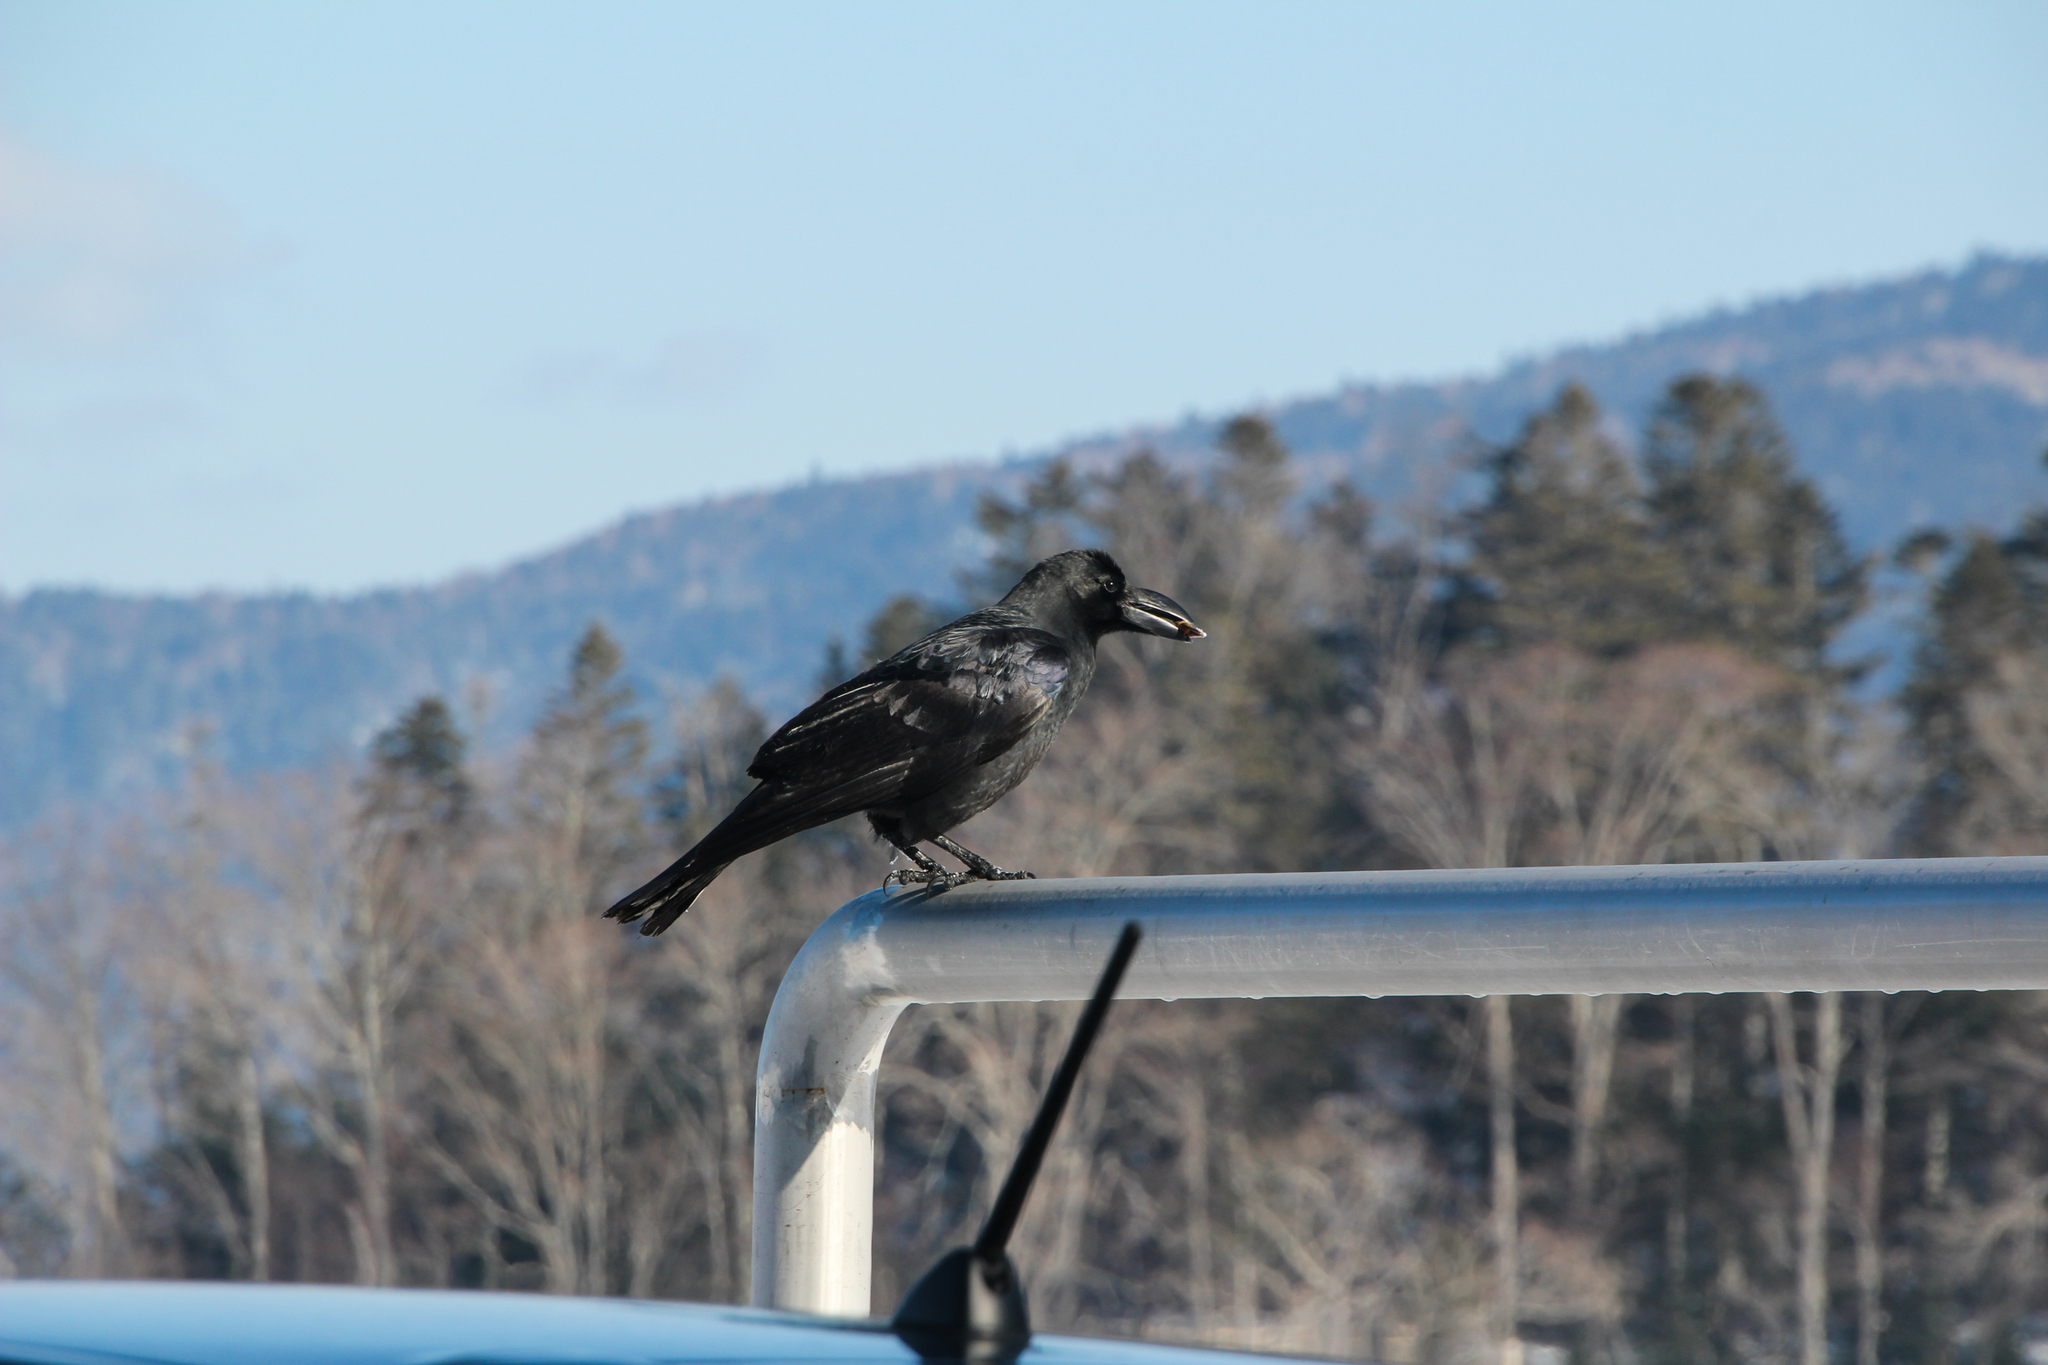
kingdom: Animalia
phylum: Chordata
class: Aves
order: Passeriformes
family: Corvidae
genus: Corvus
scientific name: Corvus macrorhynchos
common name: Large-billed crow
